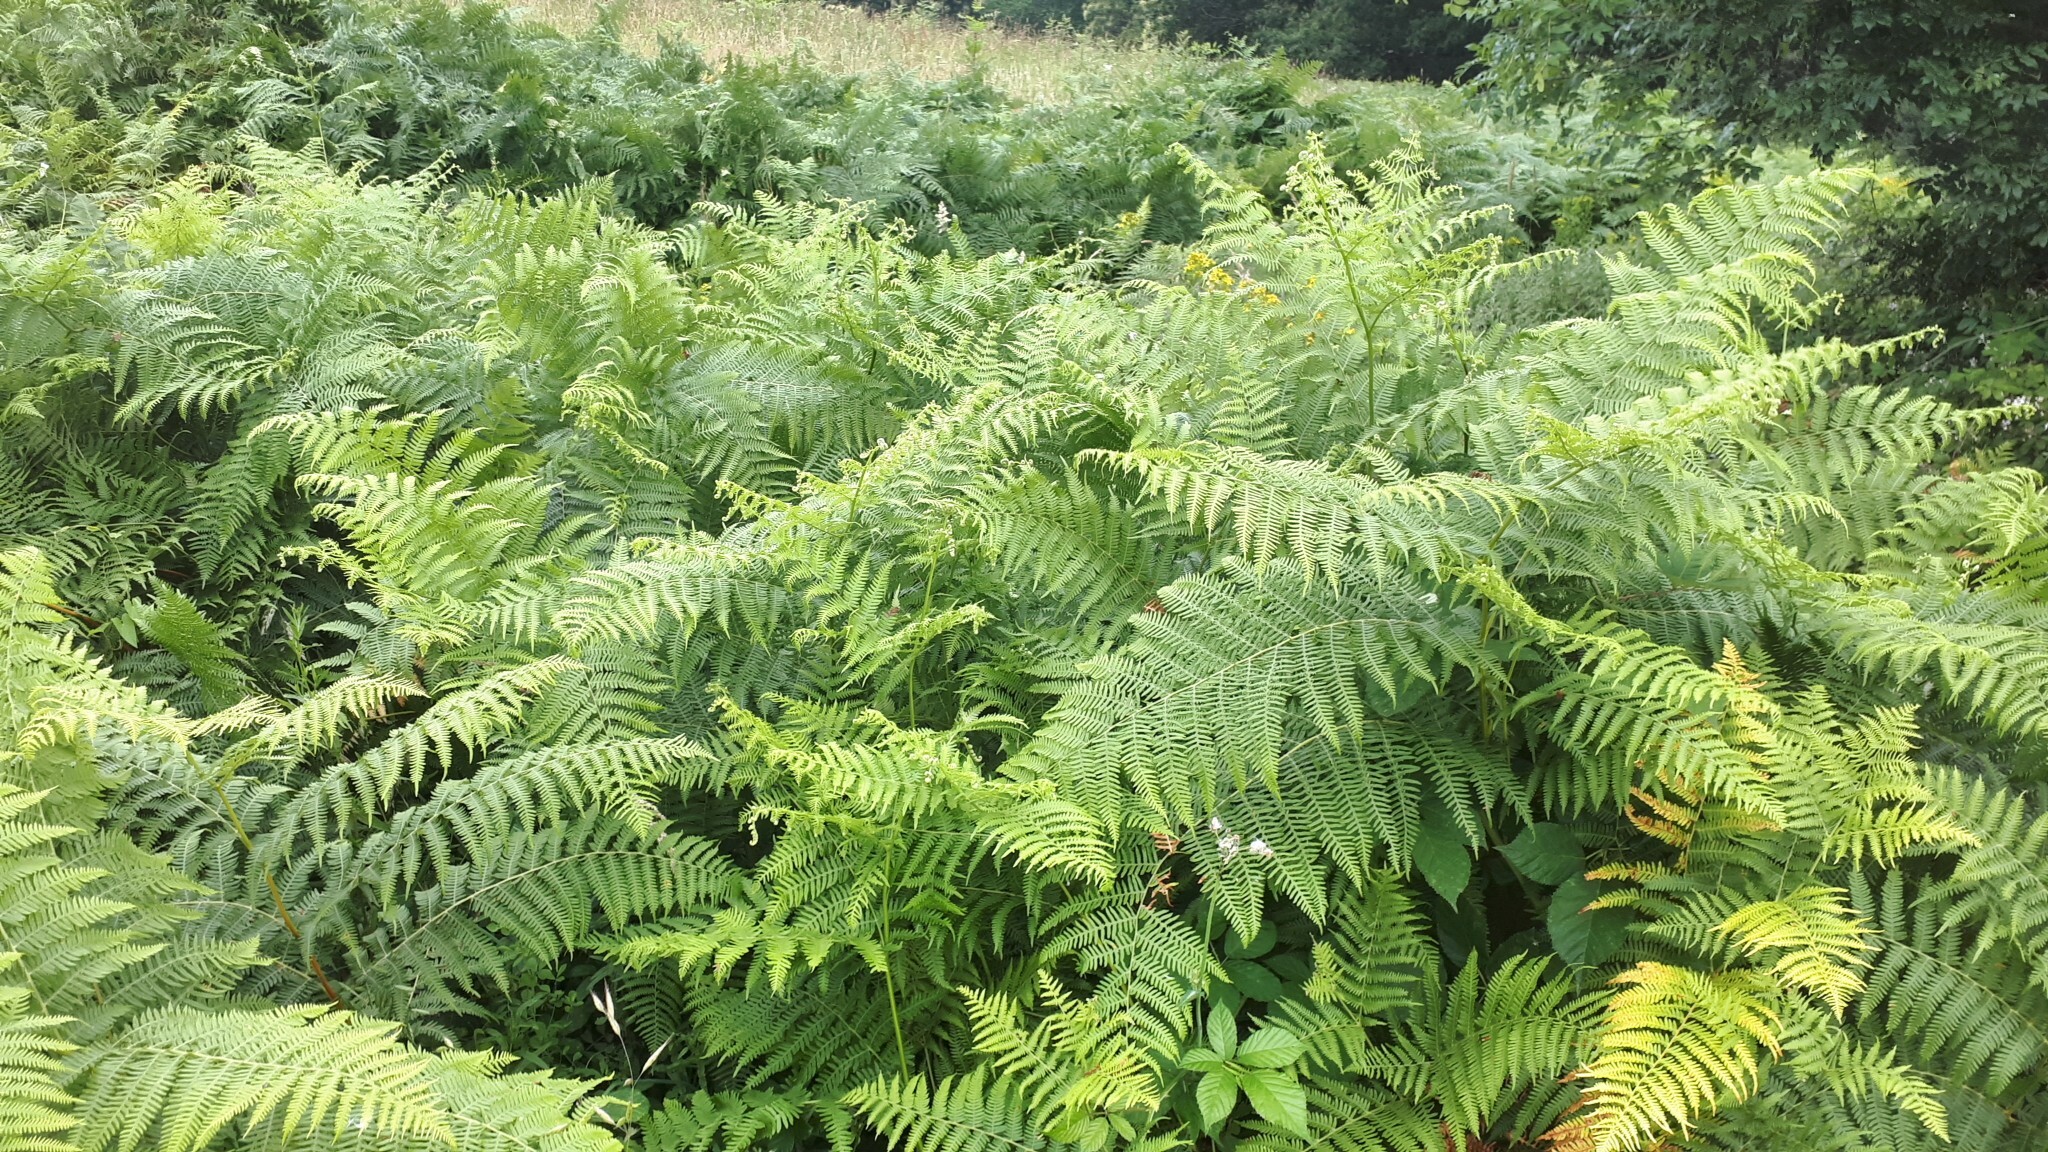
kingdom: Plantae
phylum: Tracheophyta
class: Polypodiopsida
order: Polypodiales
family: Dennstaedtiaceae
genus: Pteridium
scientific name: Pteridium aquilinum
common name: Bracken
